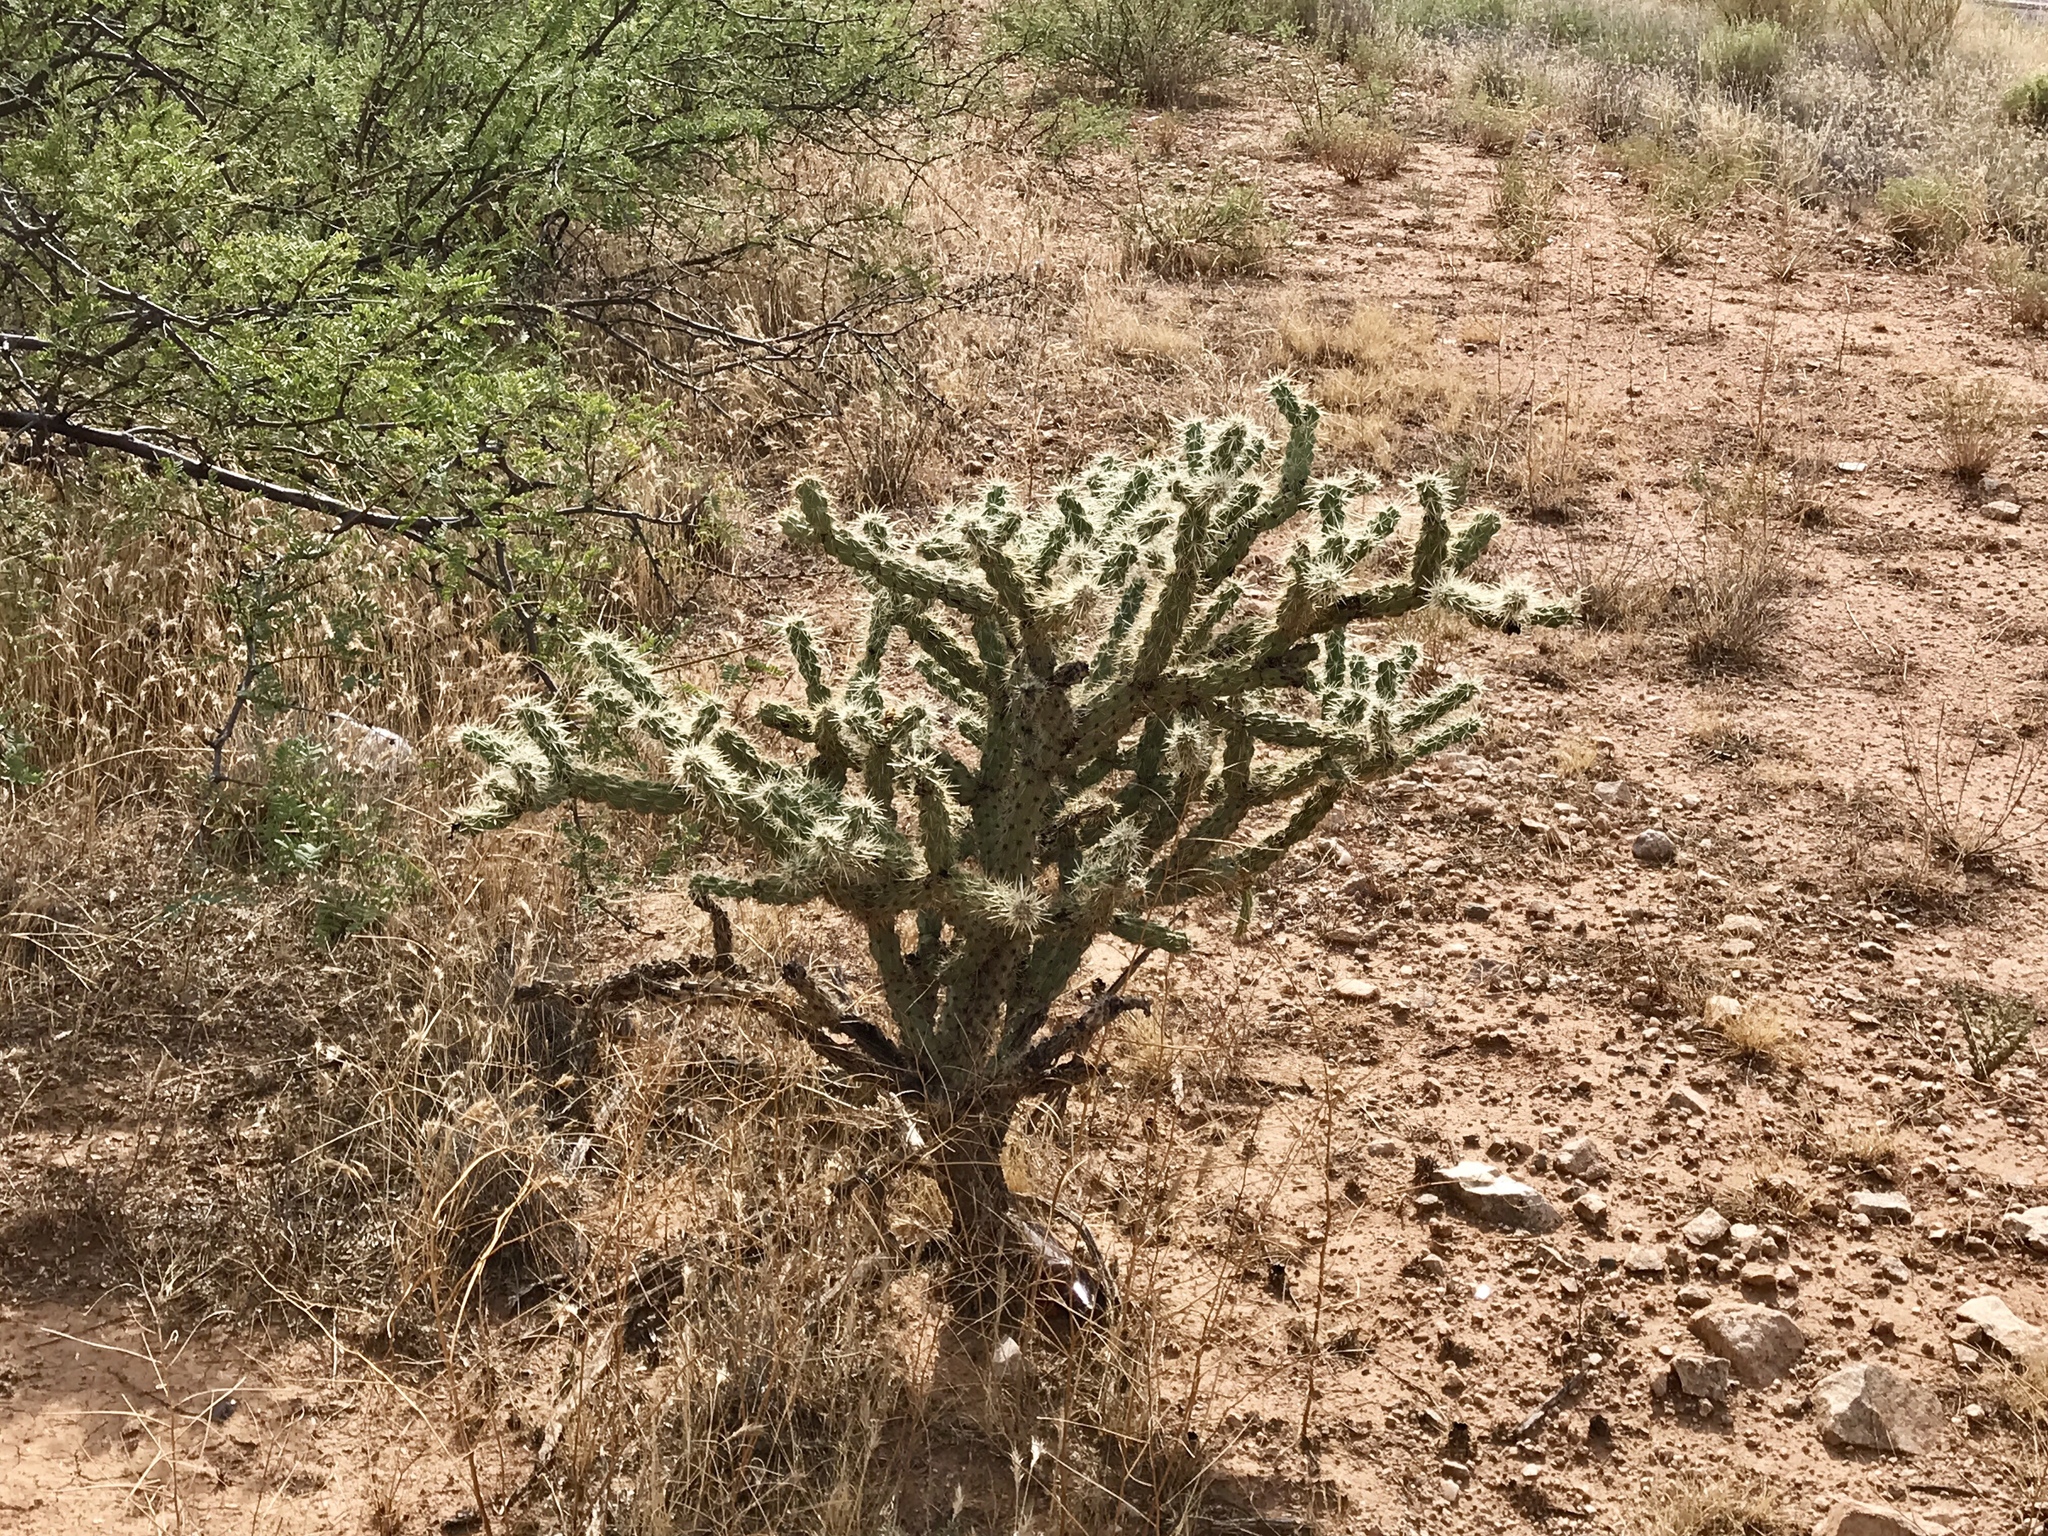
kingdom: Plantae
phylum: Tracheophyta
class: Magnoliopsida
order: Caryophyllales
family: Cactaceae
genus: Cylindropuntia
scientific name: Cylindropuntia acanthocarpa
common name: Buckhorn cholla
